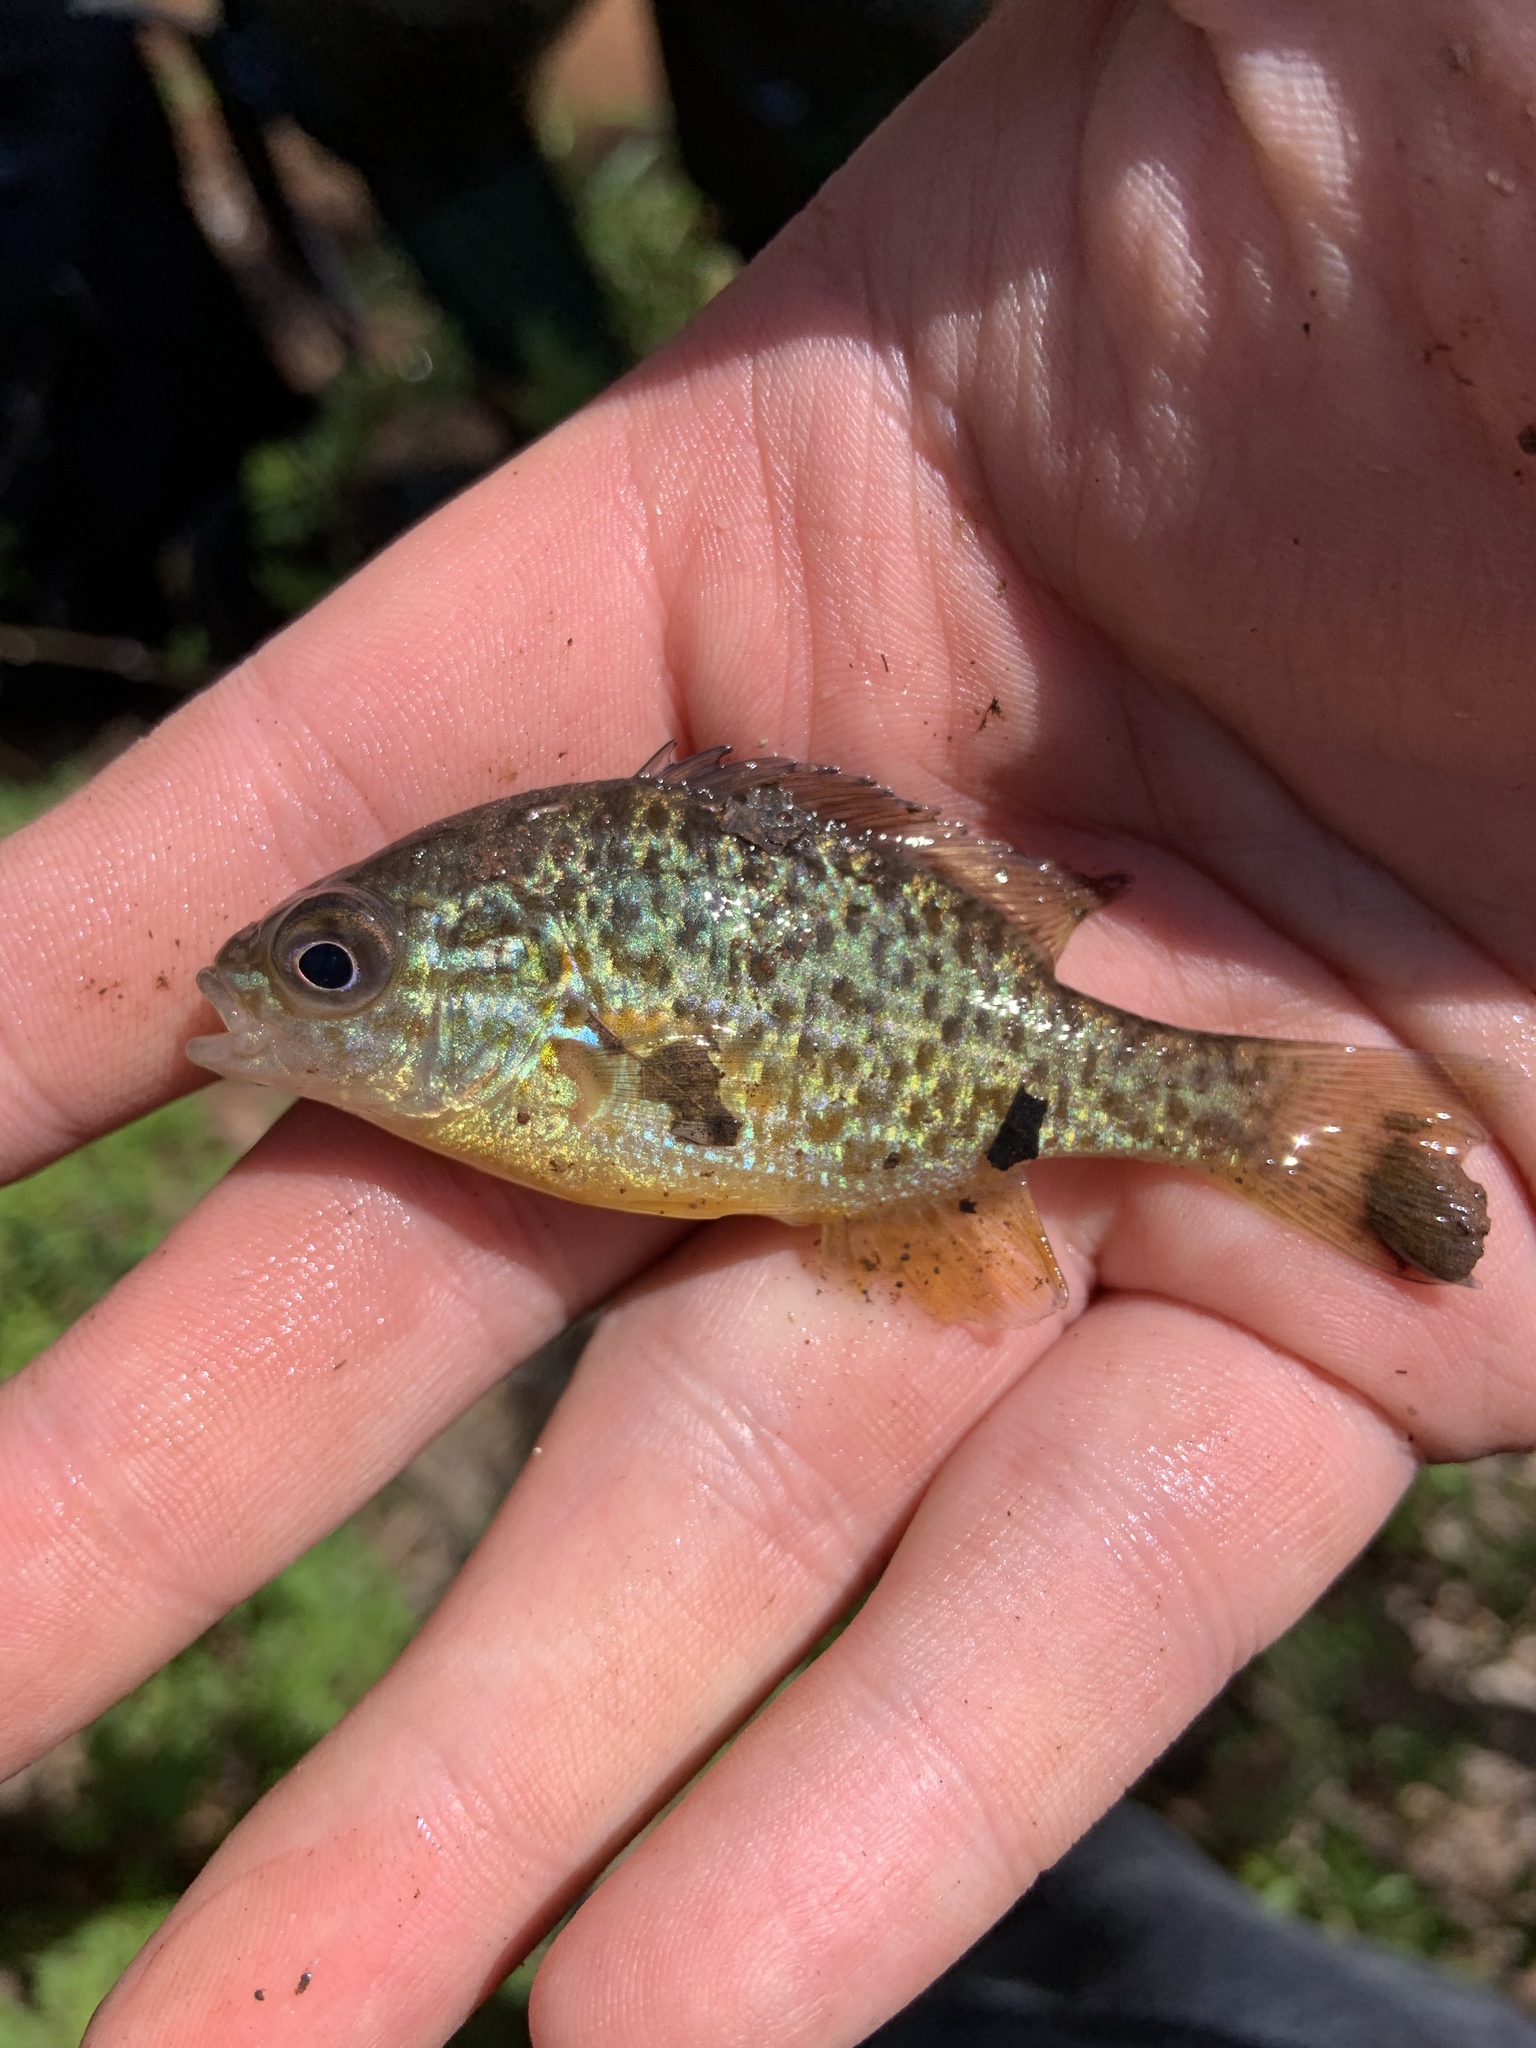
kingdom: Animalia
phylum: Chordata
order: Perciformes
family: Centrarchidae
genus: Lepomis
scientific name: Lepomis gibbosus
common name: Pumpkinseed
